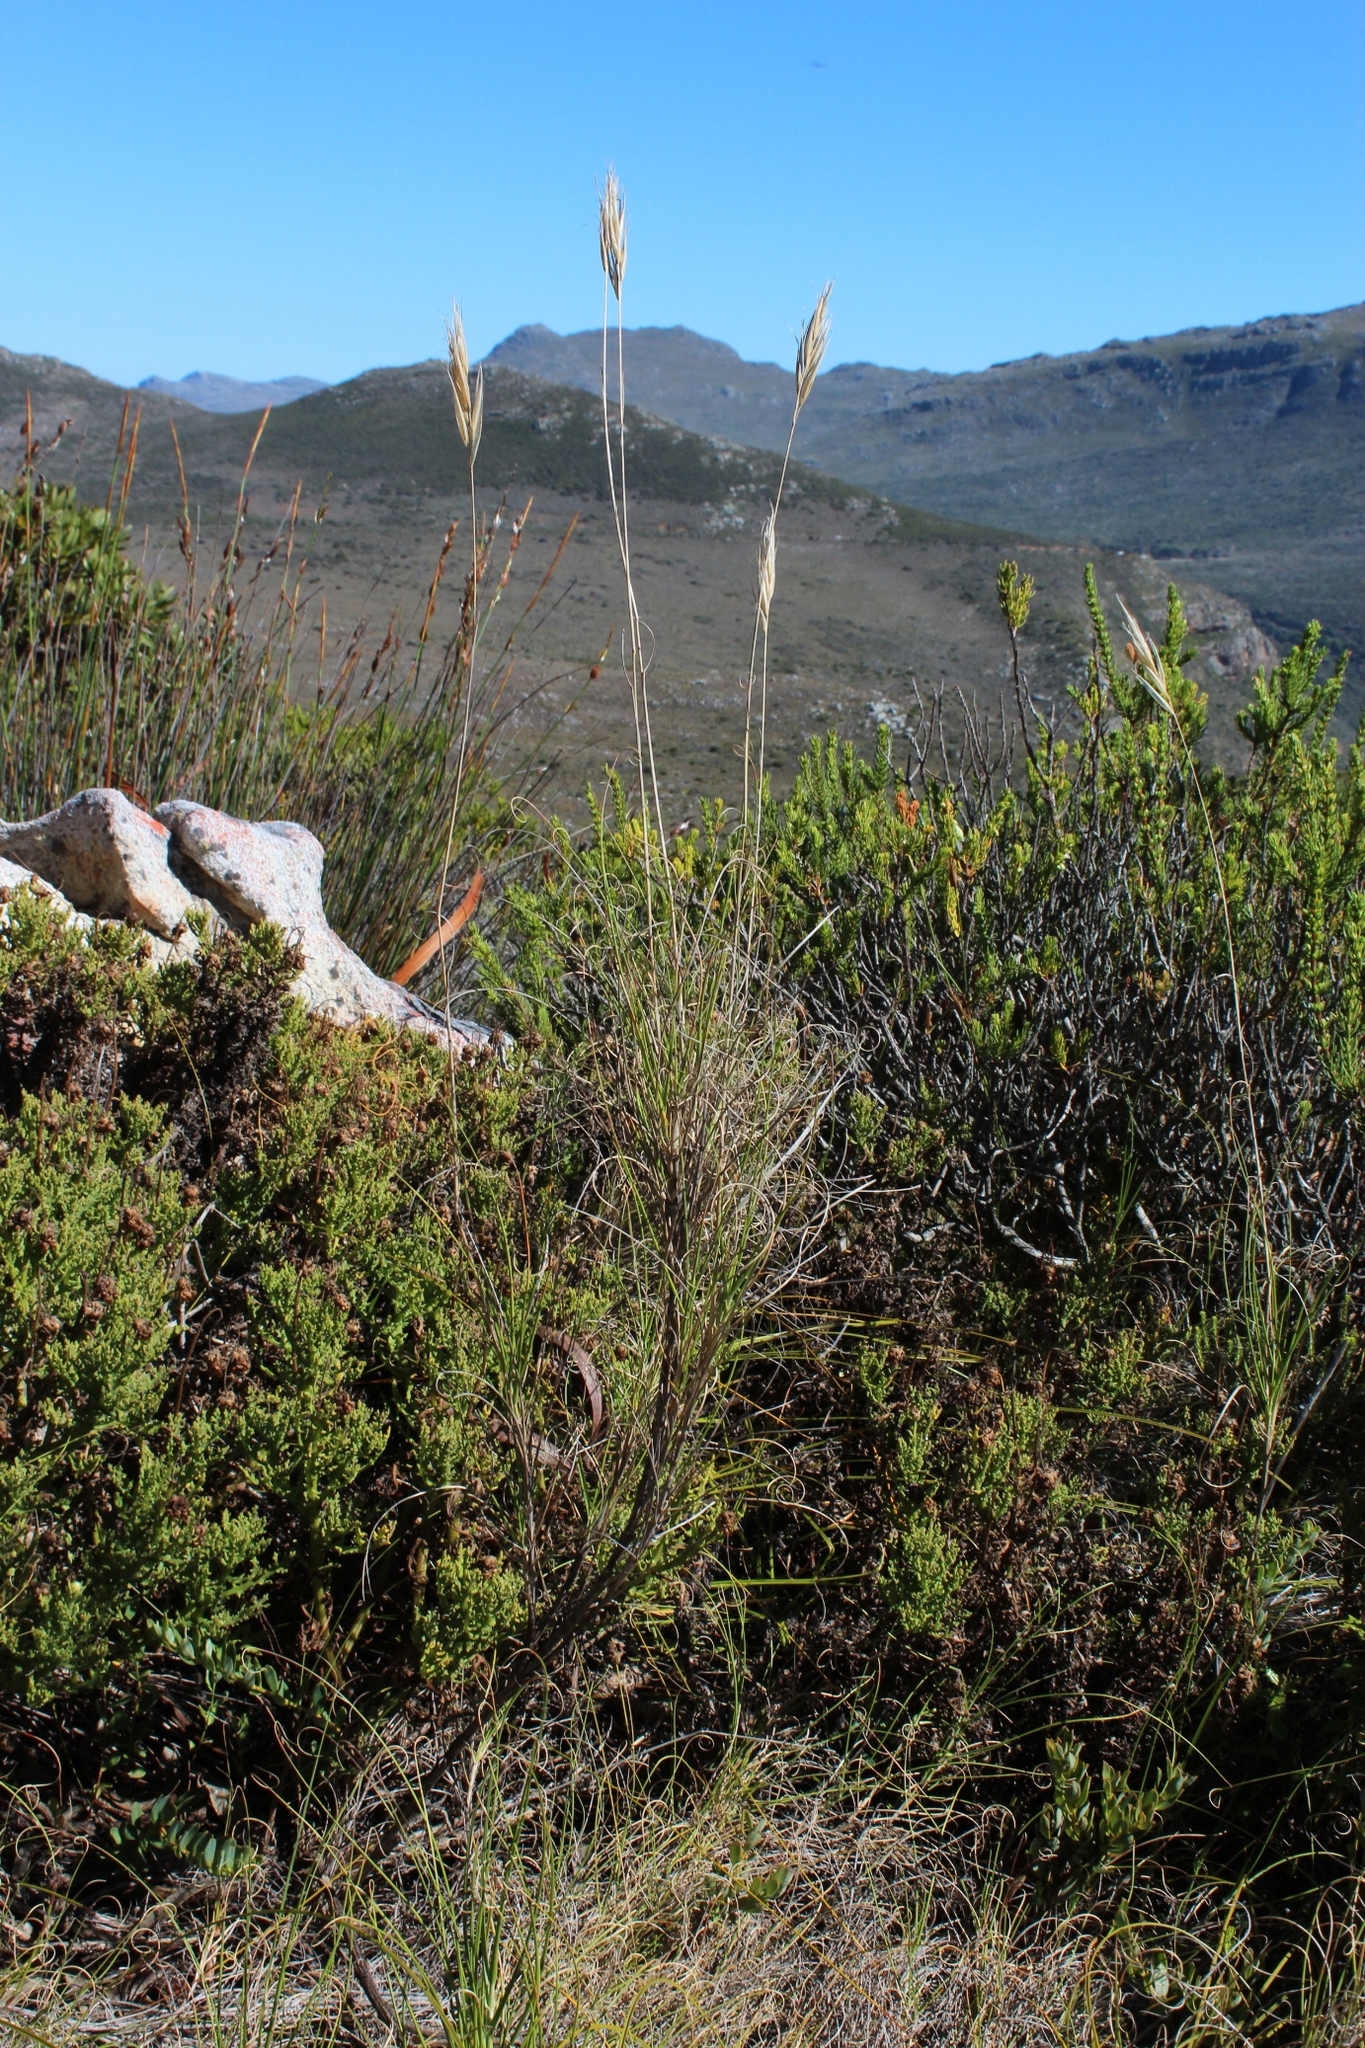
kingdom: Plantae
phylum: Tracheophyta
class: Liliopsida
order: Poales
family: Poaceae
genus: Pseudopentameris
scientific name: Pseudopentameris macrantha
